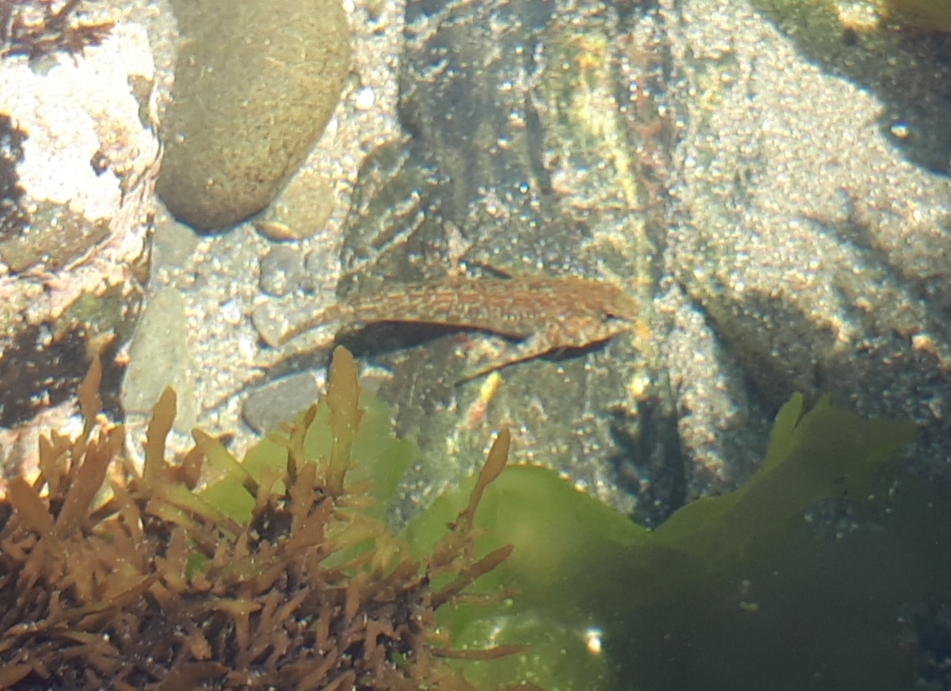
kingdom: Animalia
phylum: Chordata
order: Perciformes
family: Tripterygiidae
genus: Bellapiscis
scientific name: Bellapiscis medius
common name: Twister
